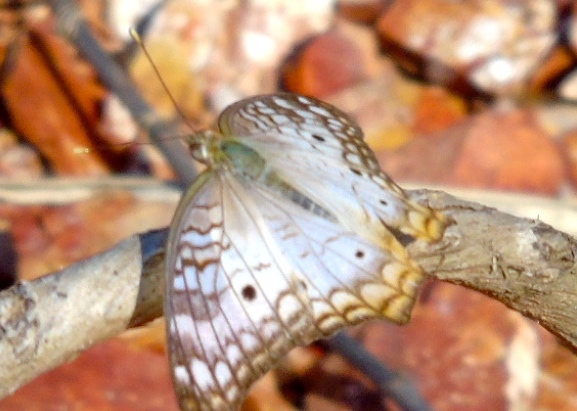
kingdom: Animalia
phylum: Arthropoda
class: Insecta
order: Lepidoptera
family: Nymphalidae
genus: Anartia
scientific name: Anartia jatrophae
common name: White peacock
